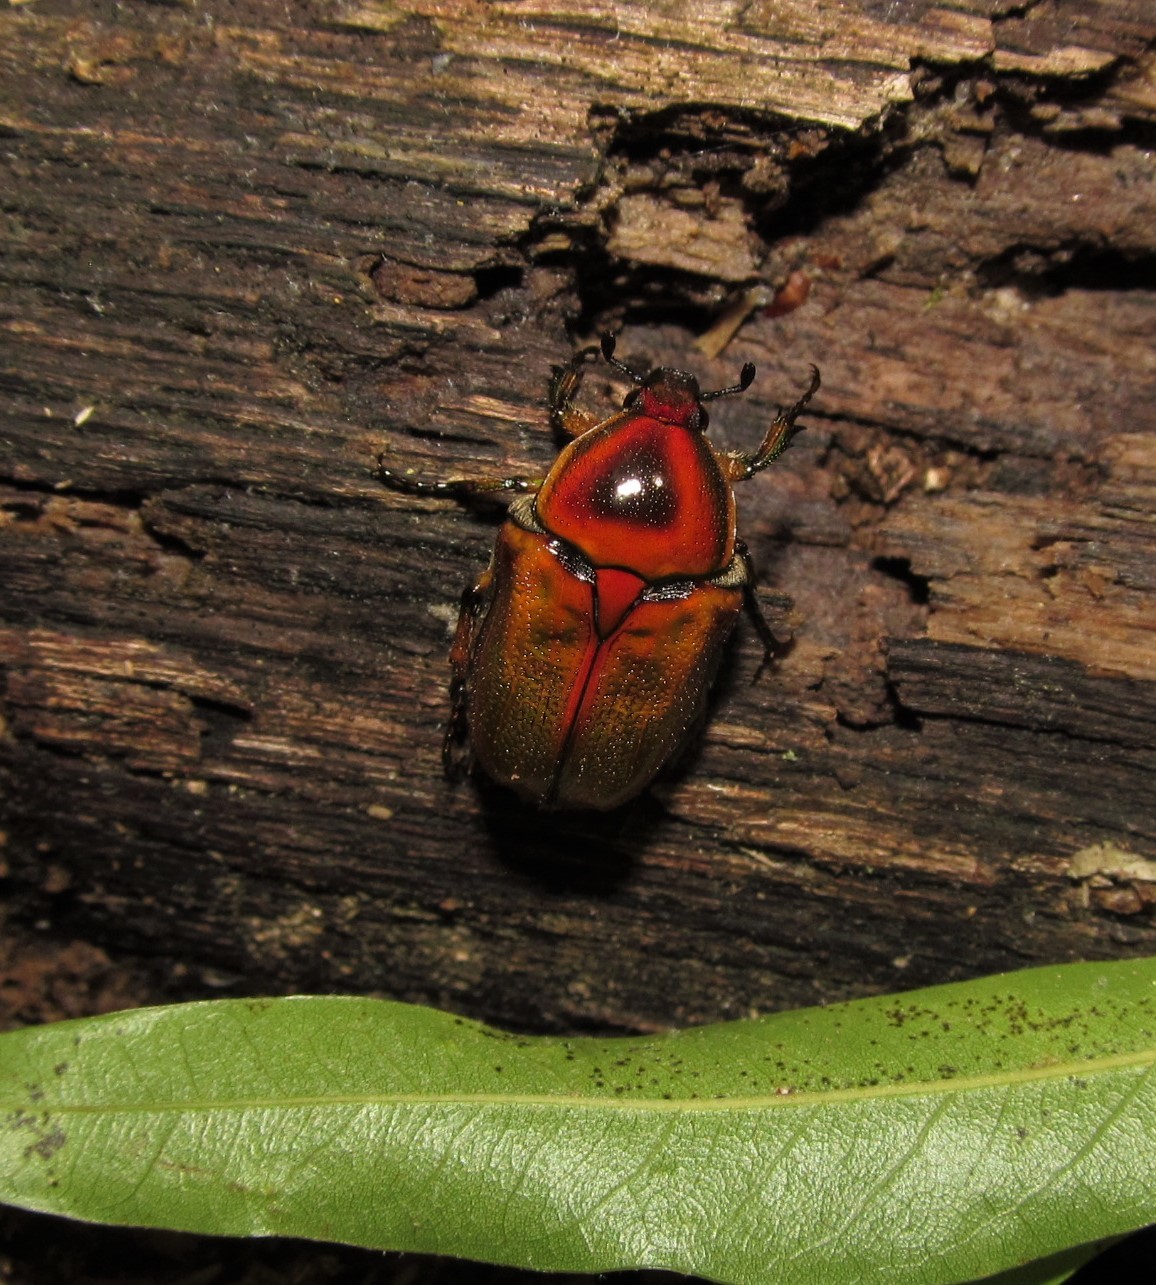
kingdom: Animalia
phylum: Arthropoda
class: Insecta
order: Coleoptera
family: Scarabaeidae
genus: Euphoria
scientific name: Euphoria fulgida
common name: Emerald euphoria
